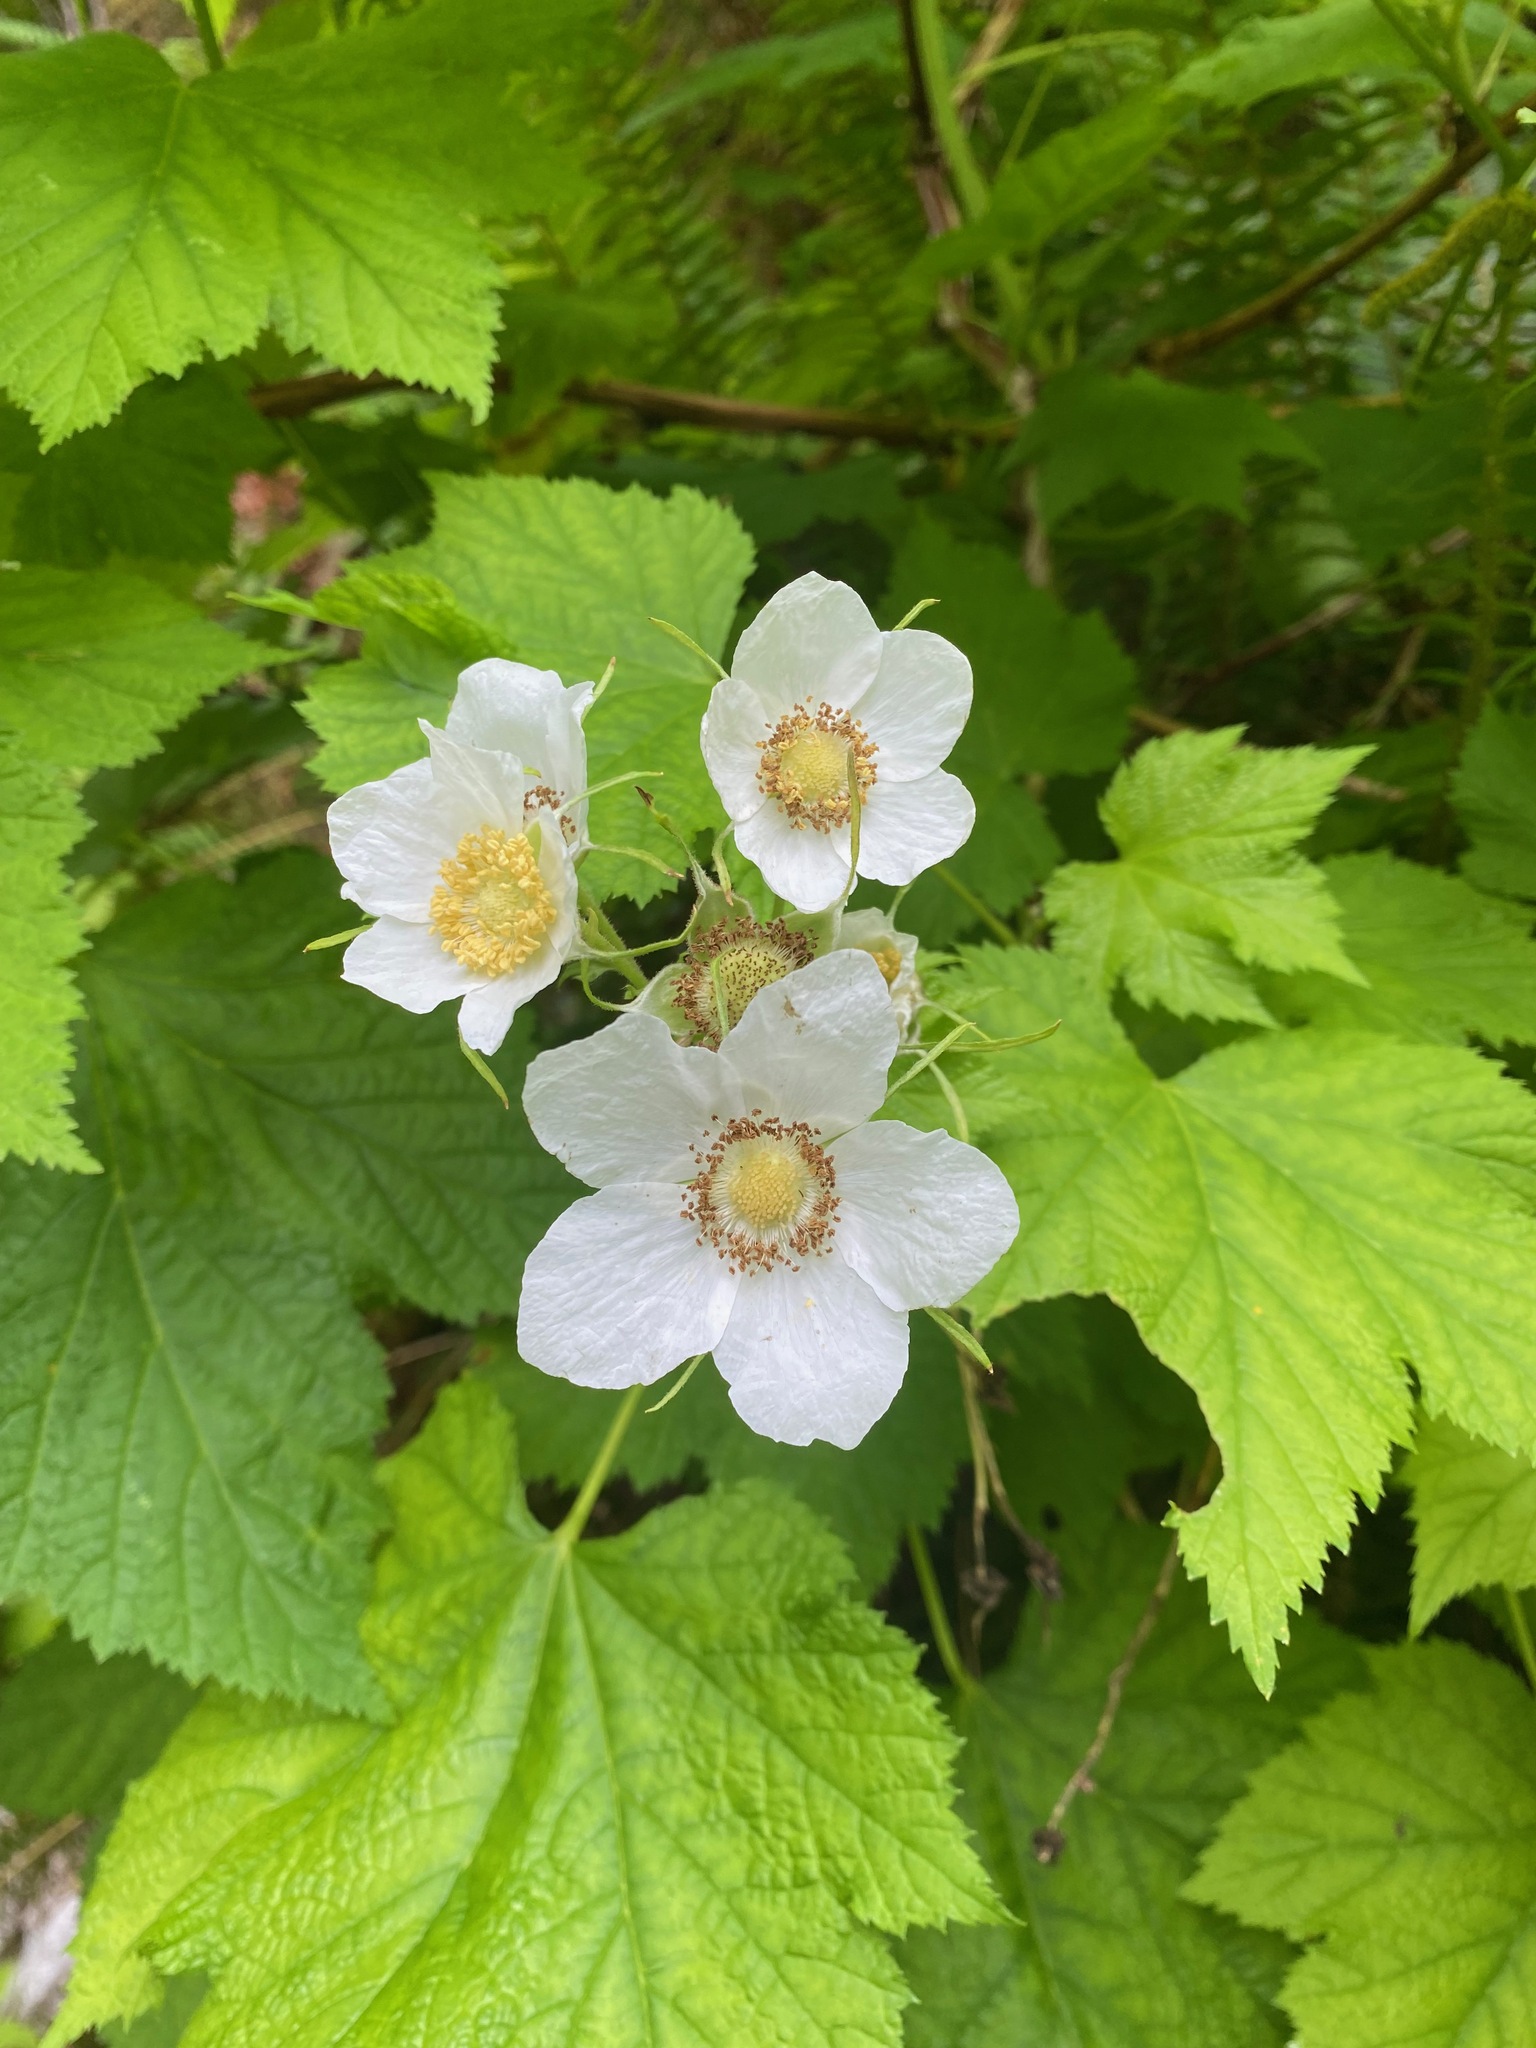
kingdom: Plantae
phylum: Tracheophyta
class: Magnoliopsida
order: Rosales
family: Rosaceae
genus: Rubus
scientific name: Rubus parviflorus
